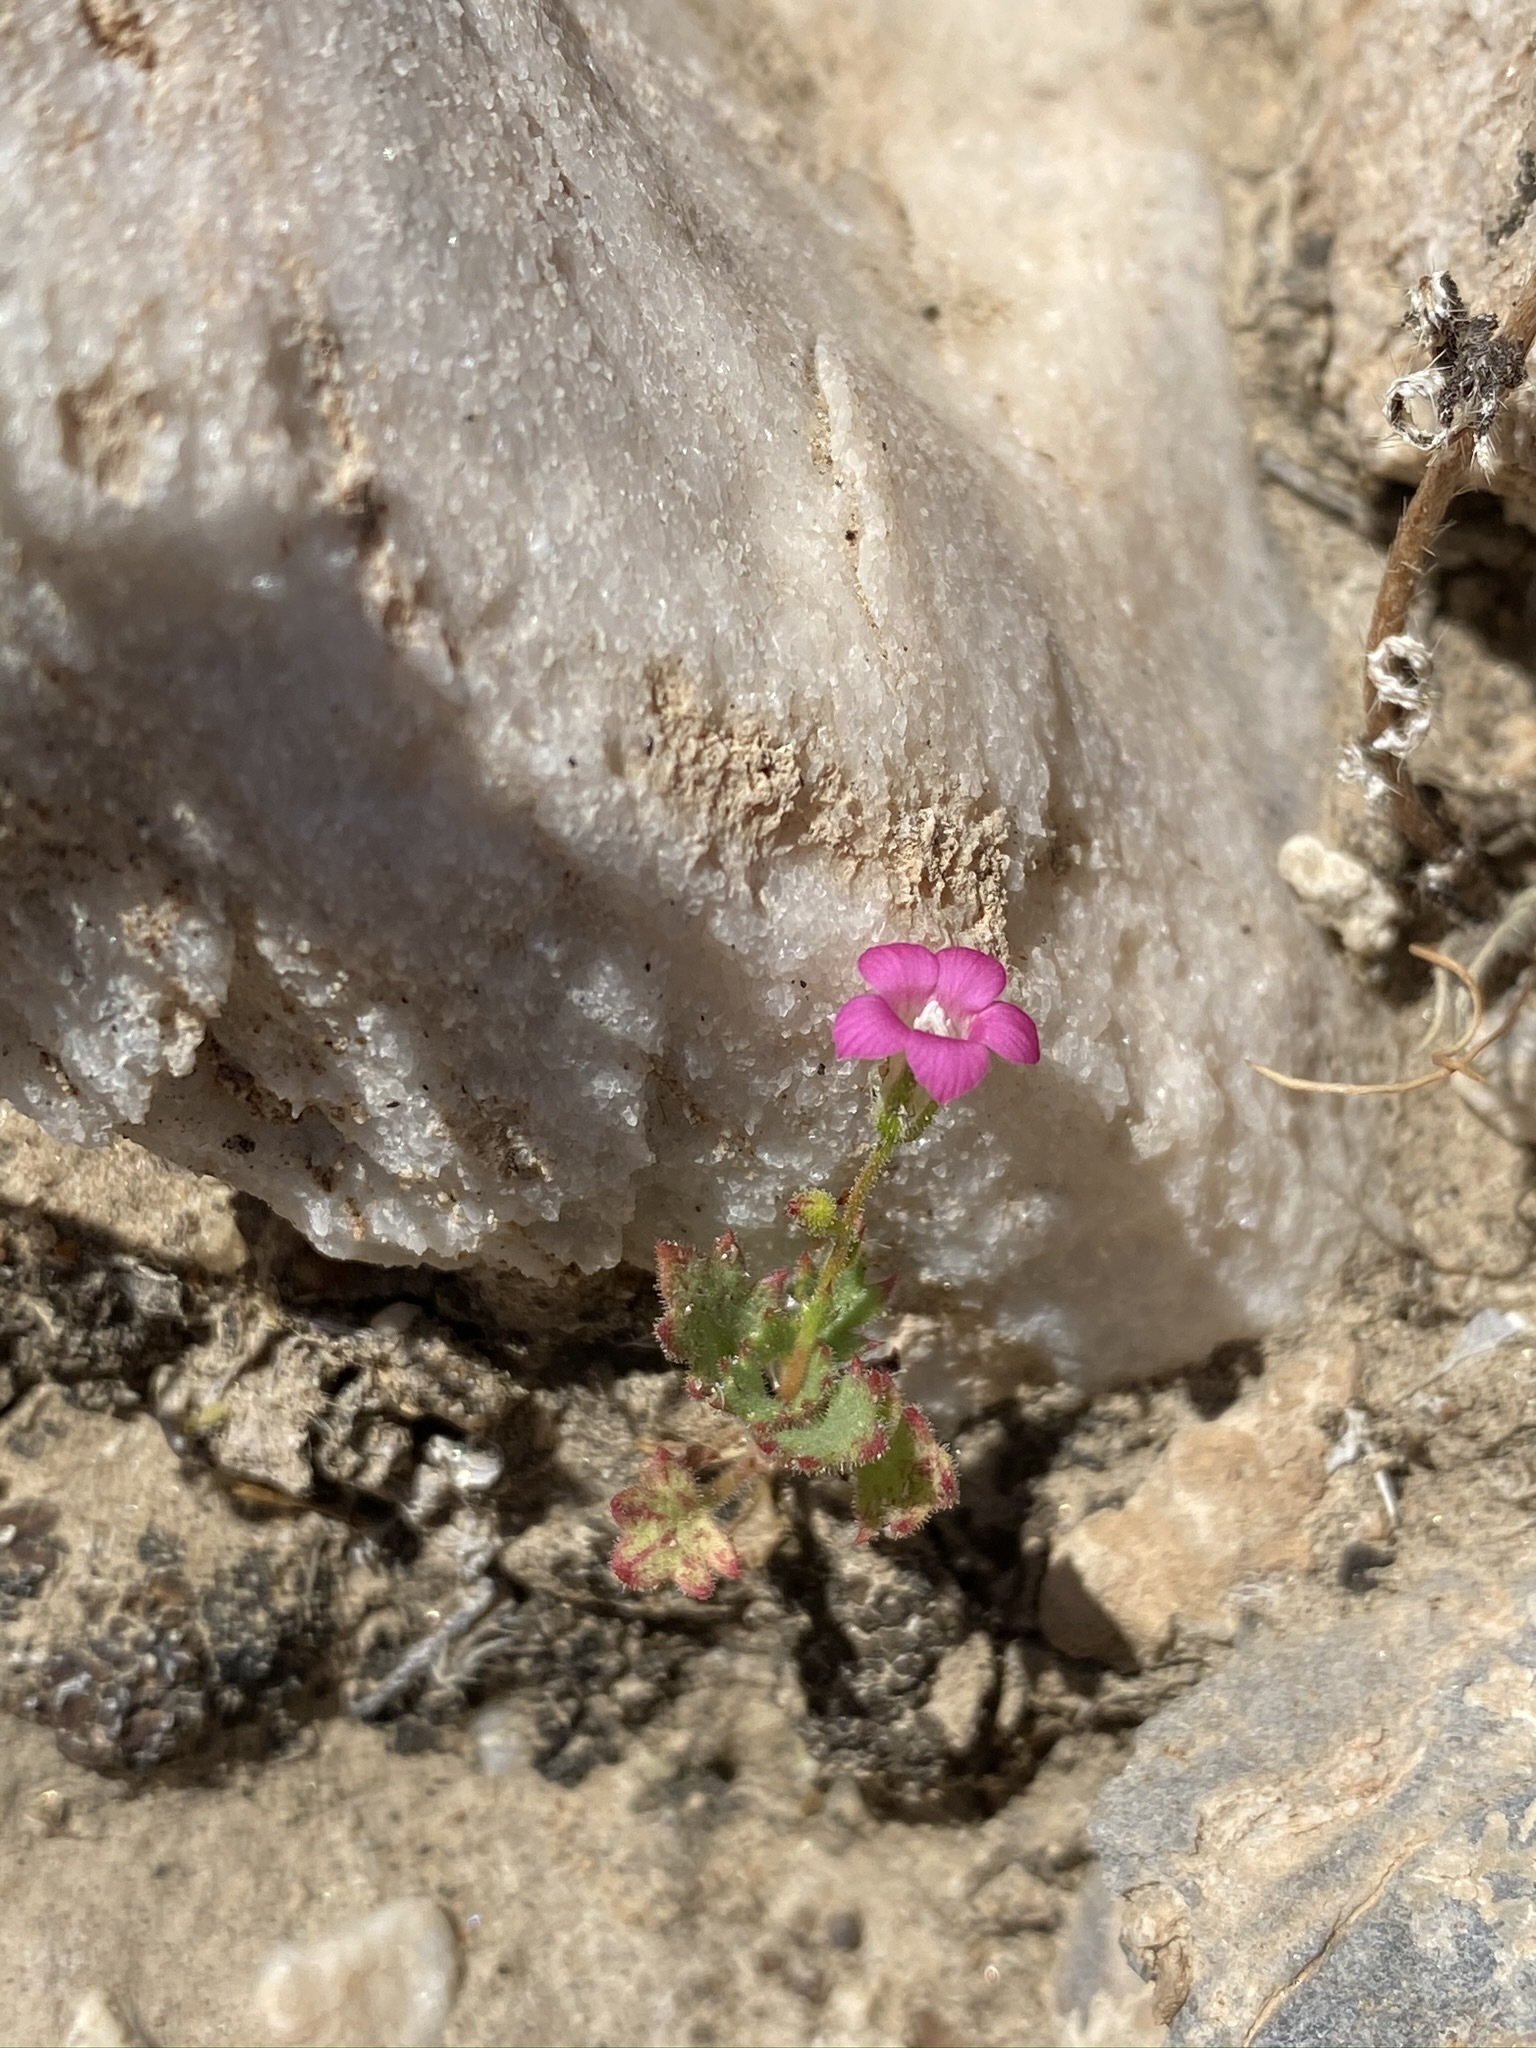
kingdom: Plantae
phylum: Tracheophyta
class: Magnoliopsida
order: Ericales
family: Polemoniaceae
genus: Aliciella
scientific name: Aliciella latifolia
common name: Broad-leaf gilia
